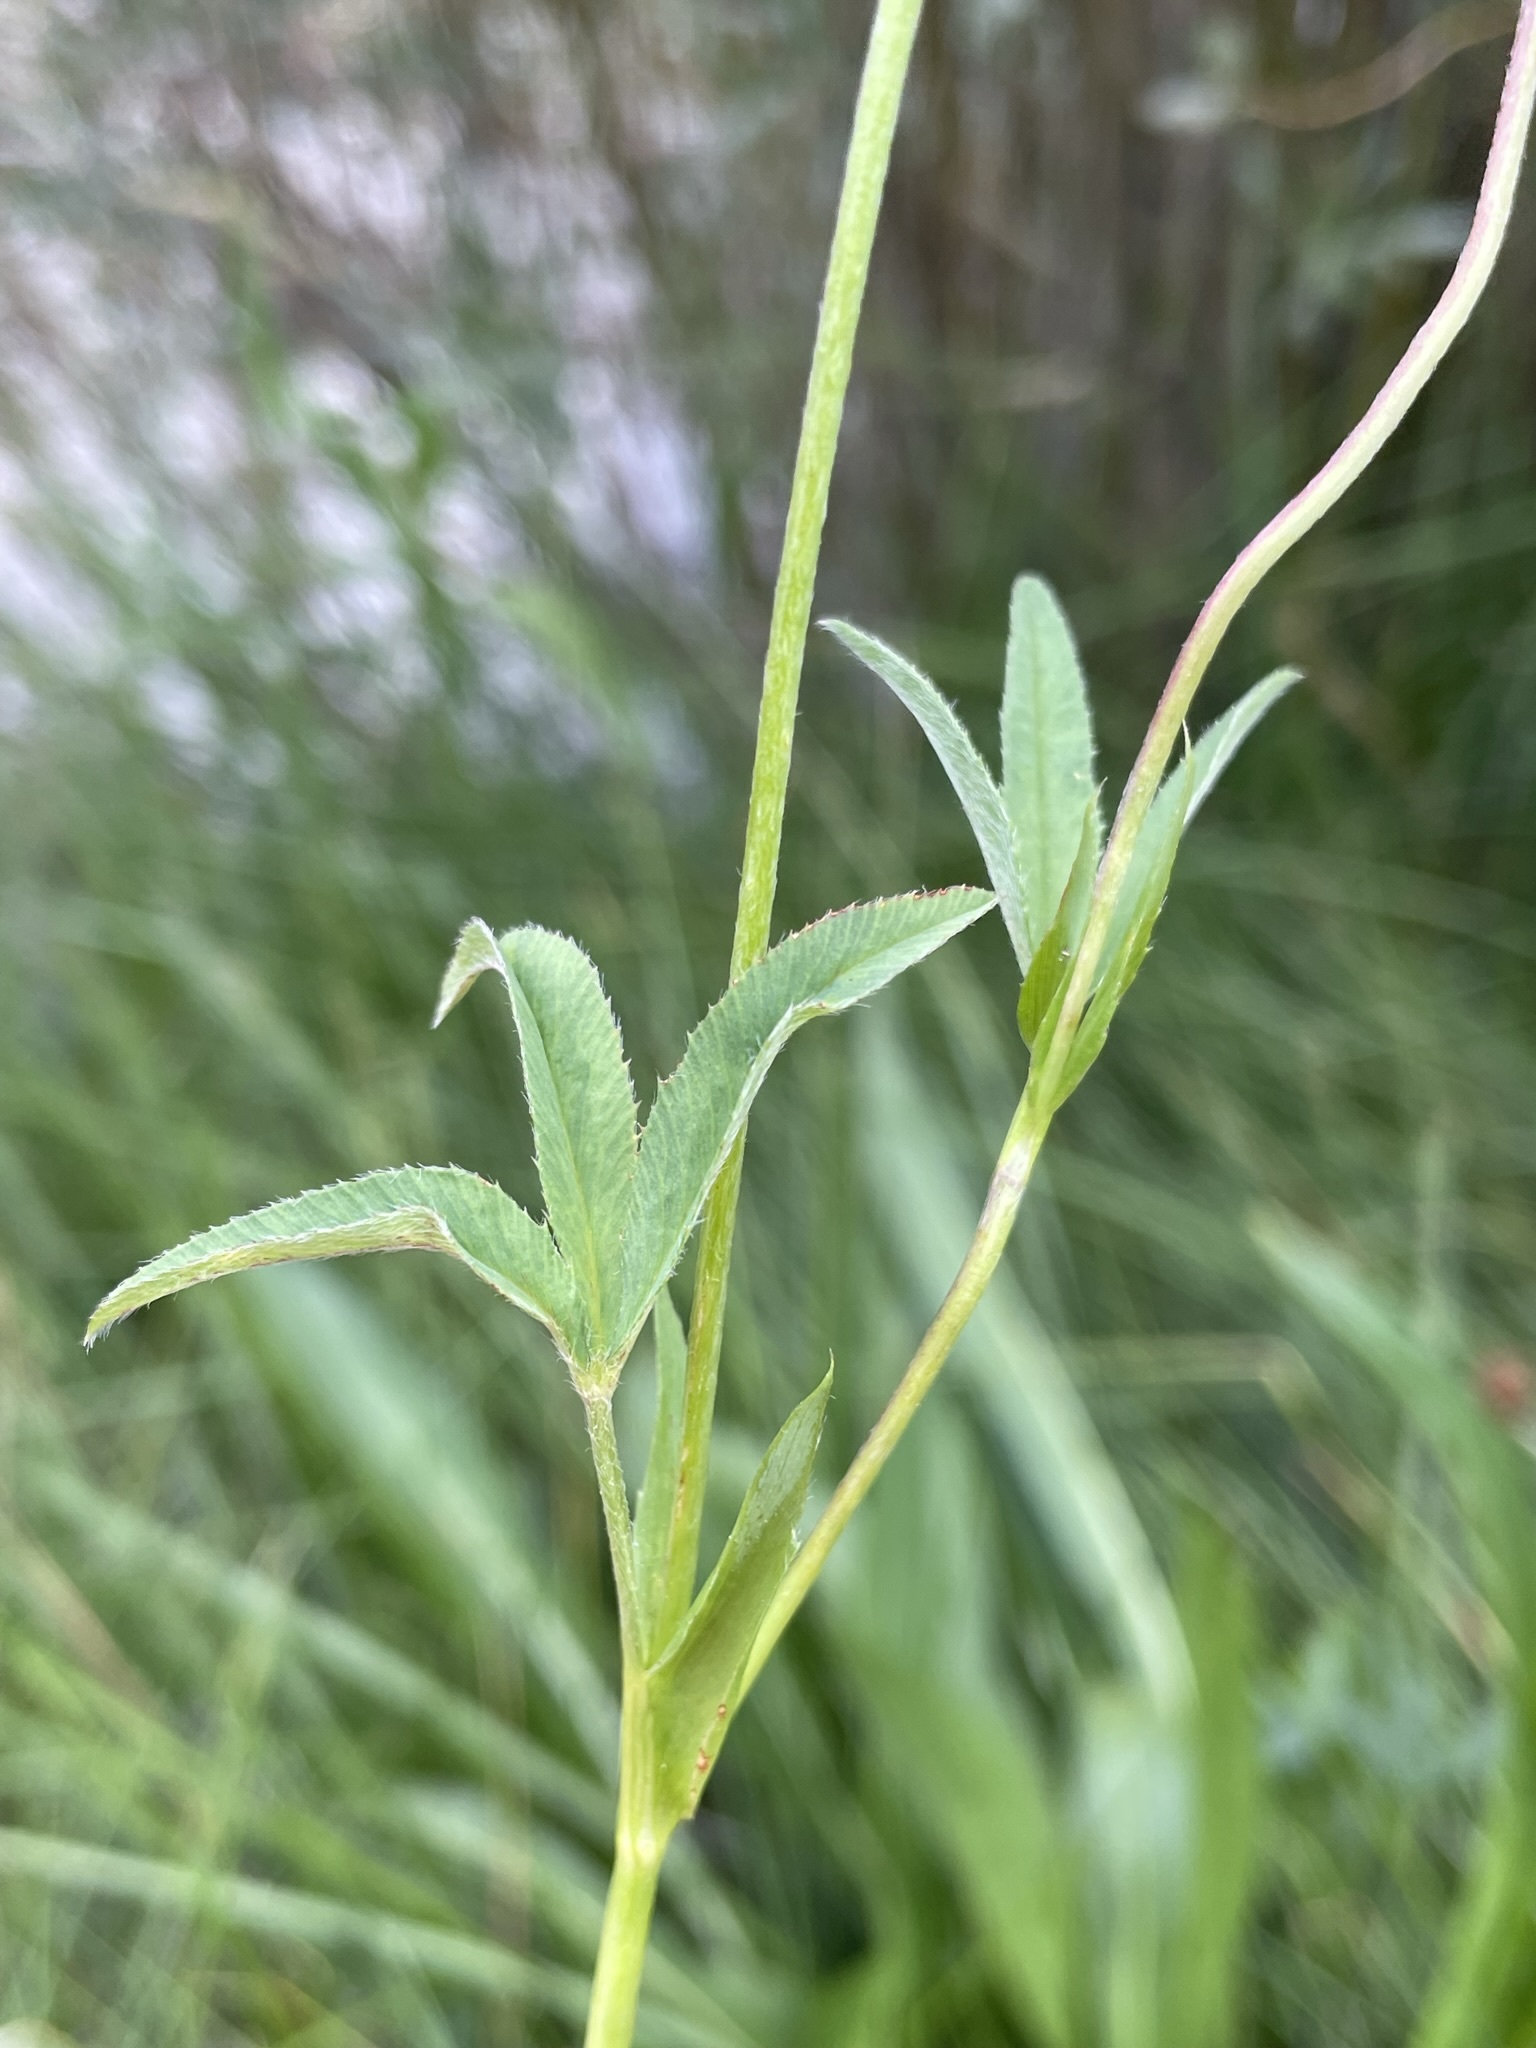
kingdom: Plantae
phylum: Tracheophyta
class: Magnoliopsida
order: Fabales
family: Fabaceae
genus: Trifolium
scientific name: Trifolium longipes
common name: Long-stalk clover
